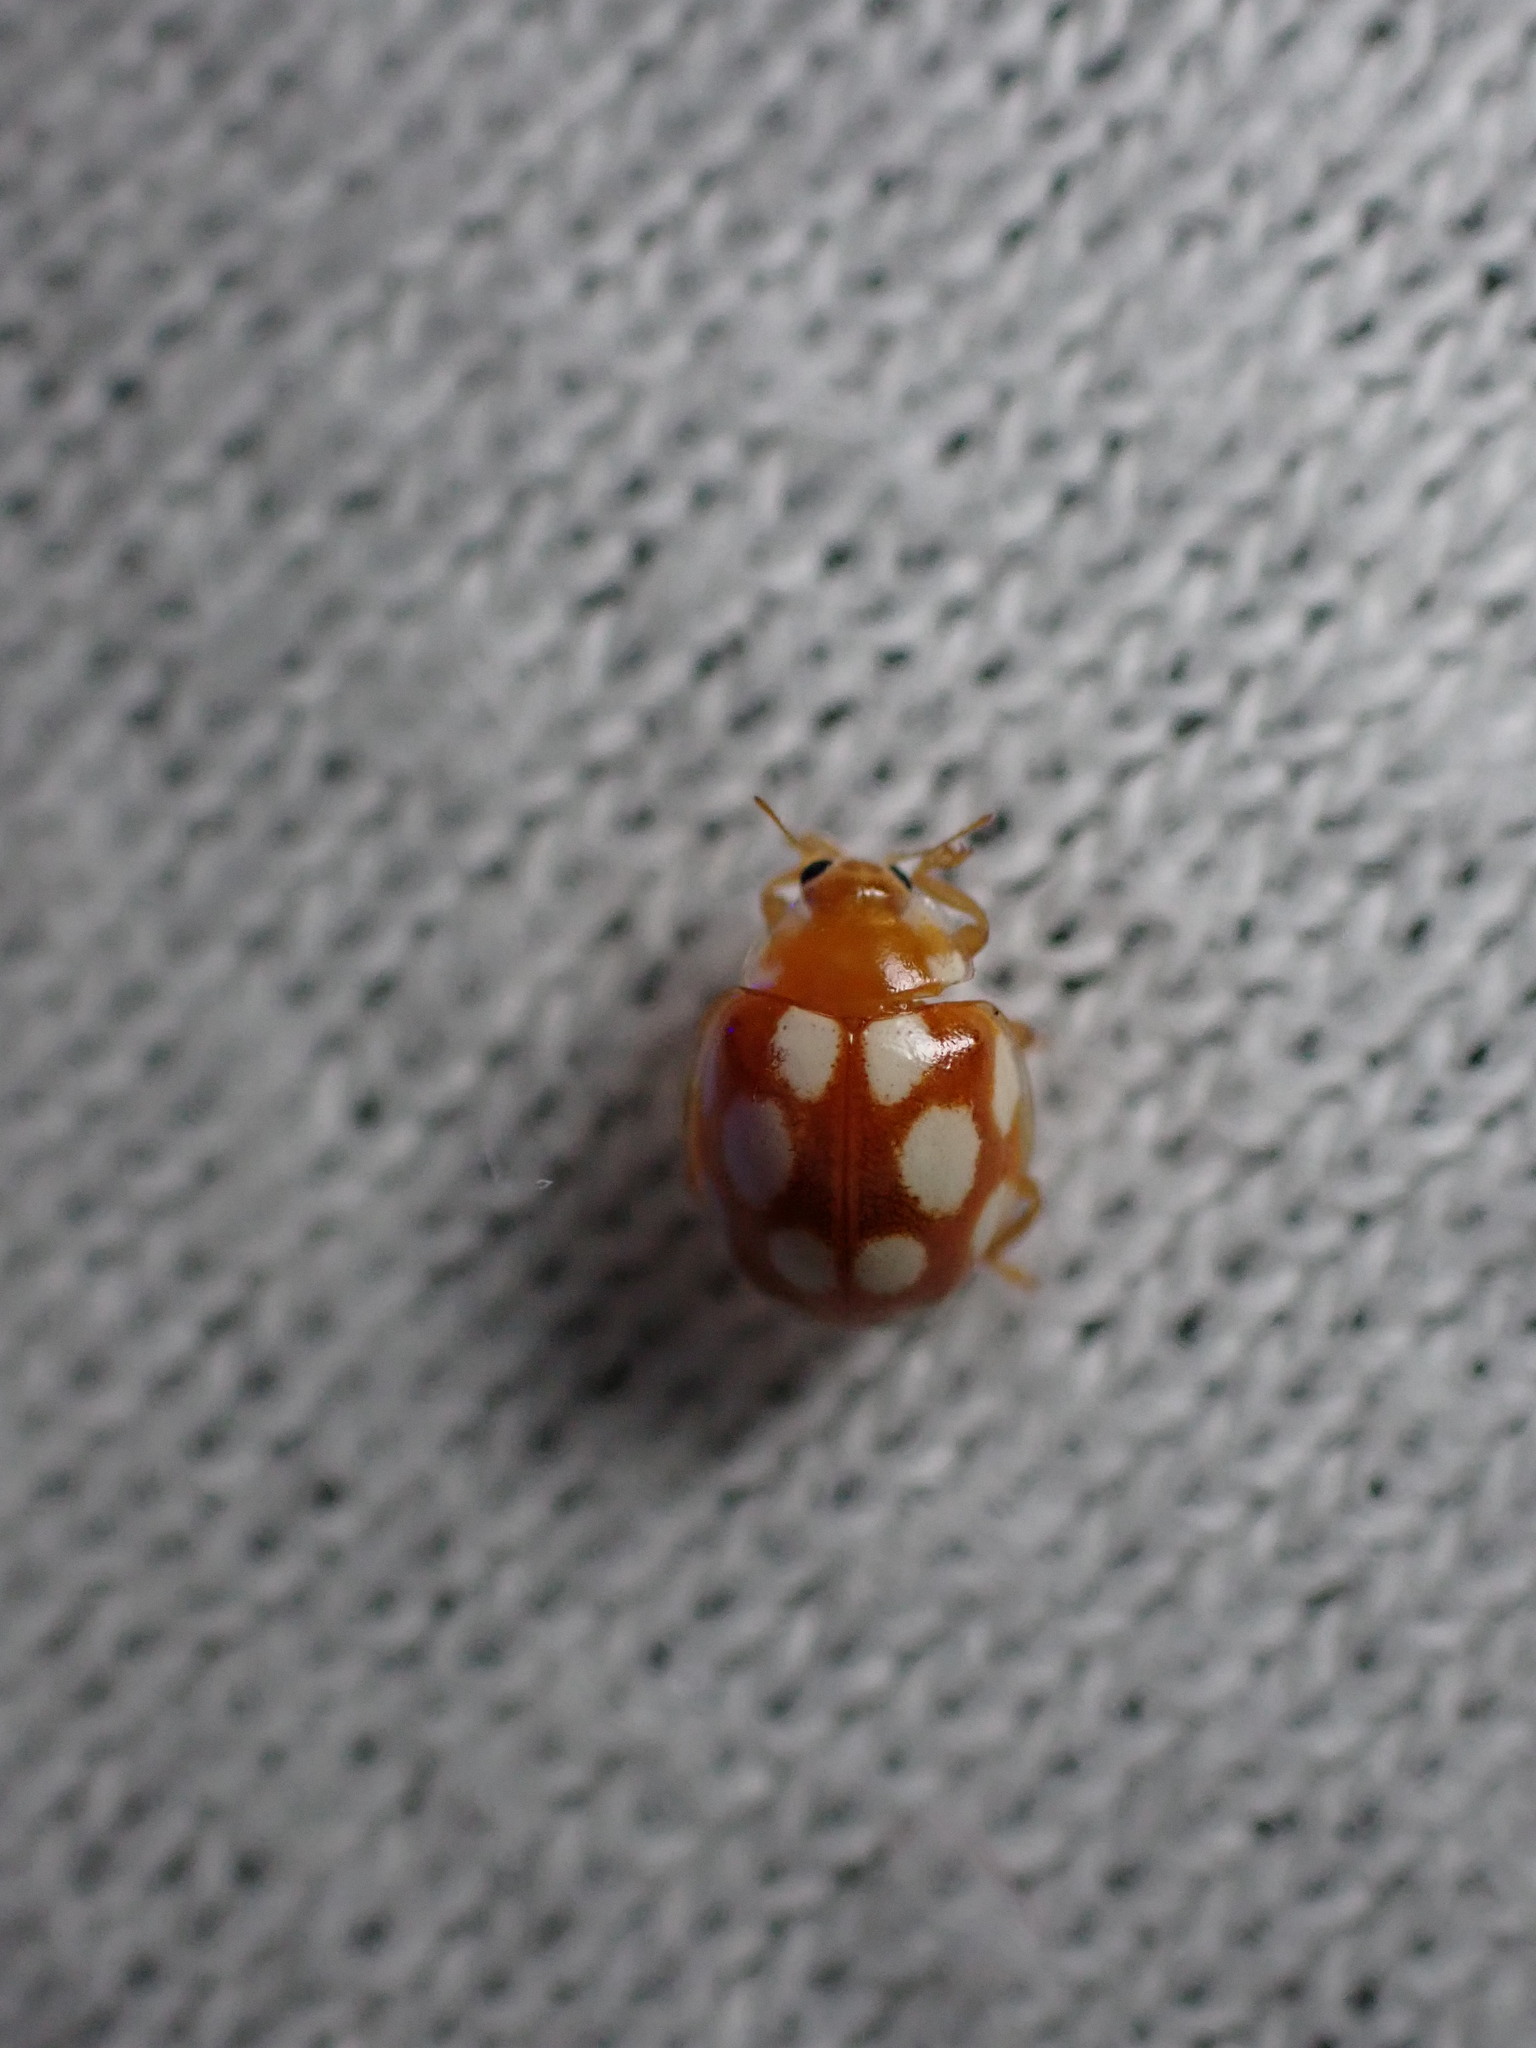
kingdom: Animalia
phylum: Arthropoda
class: Insecta
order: Coleoptera
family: Coccinellidae
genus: Vibidia
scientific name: Vibidia duodecimguttata
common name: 12-spot ladybird
